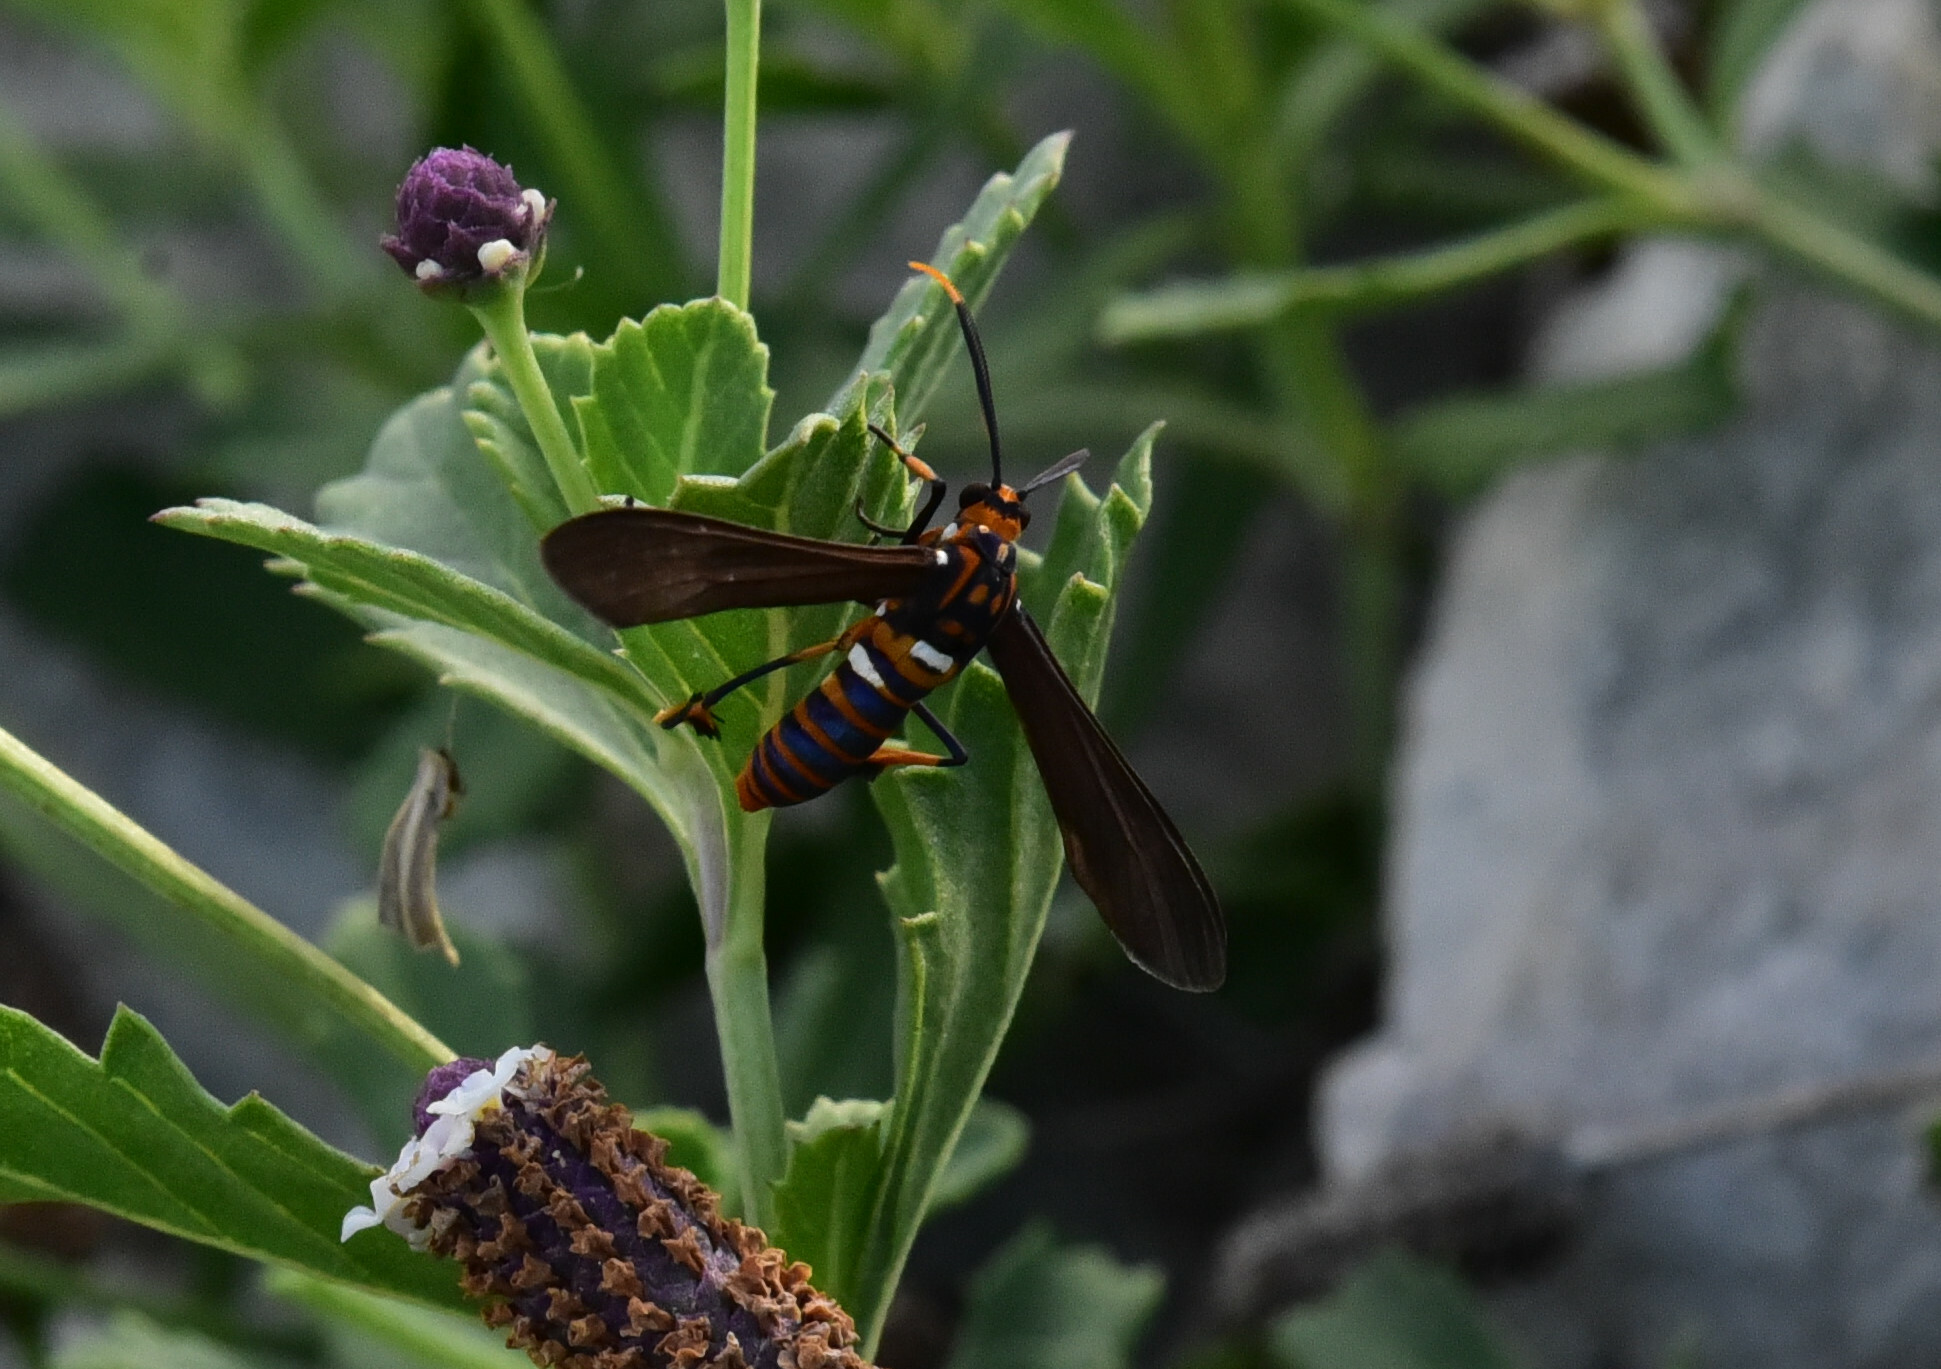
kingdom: Animalia
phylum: Arthropoda
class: Insecta
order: Lepidoptera
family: Erebidae
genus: Horama
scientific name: Horama panthalon
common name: Texas wasp moth
